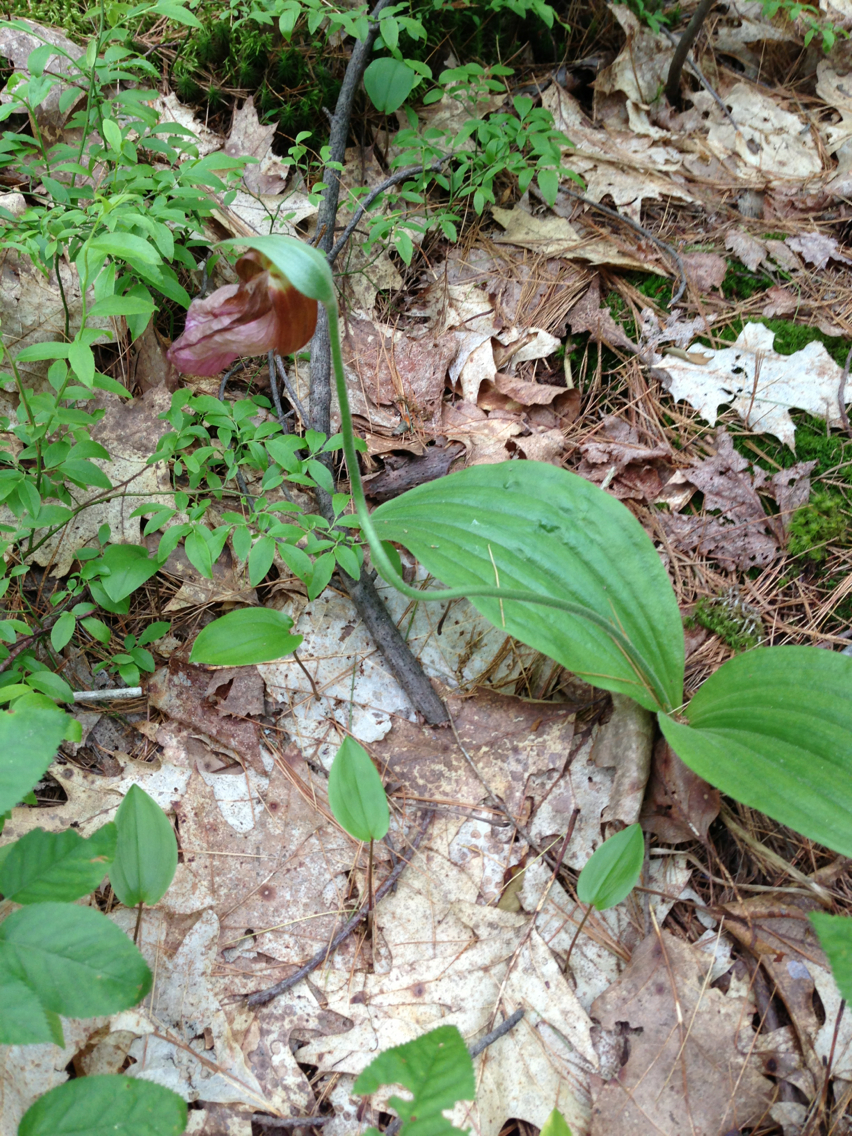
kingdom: Plantae
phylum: Tracheophyta
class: Liliopsida
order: Asparagales
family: Orchidaceae
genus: Cypripedium
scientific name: Cypripedium acaule
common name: Pink lady's-slipper
